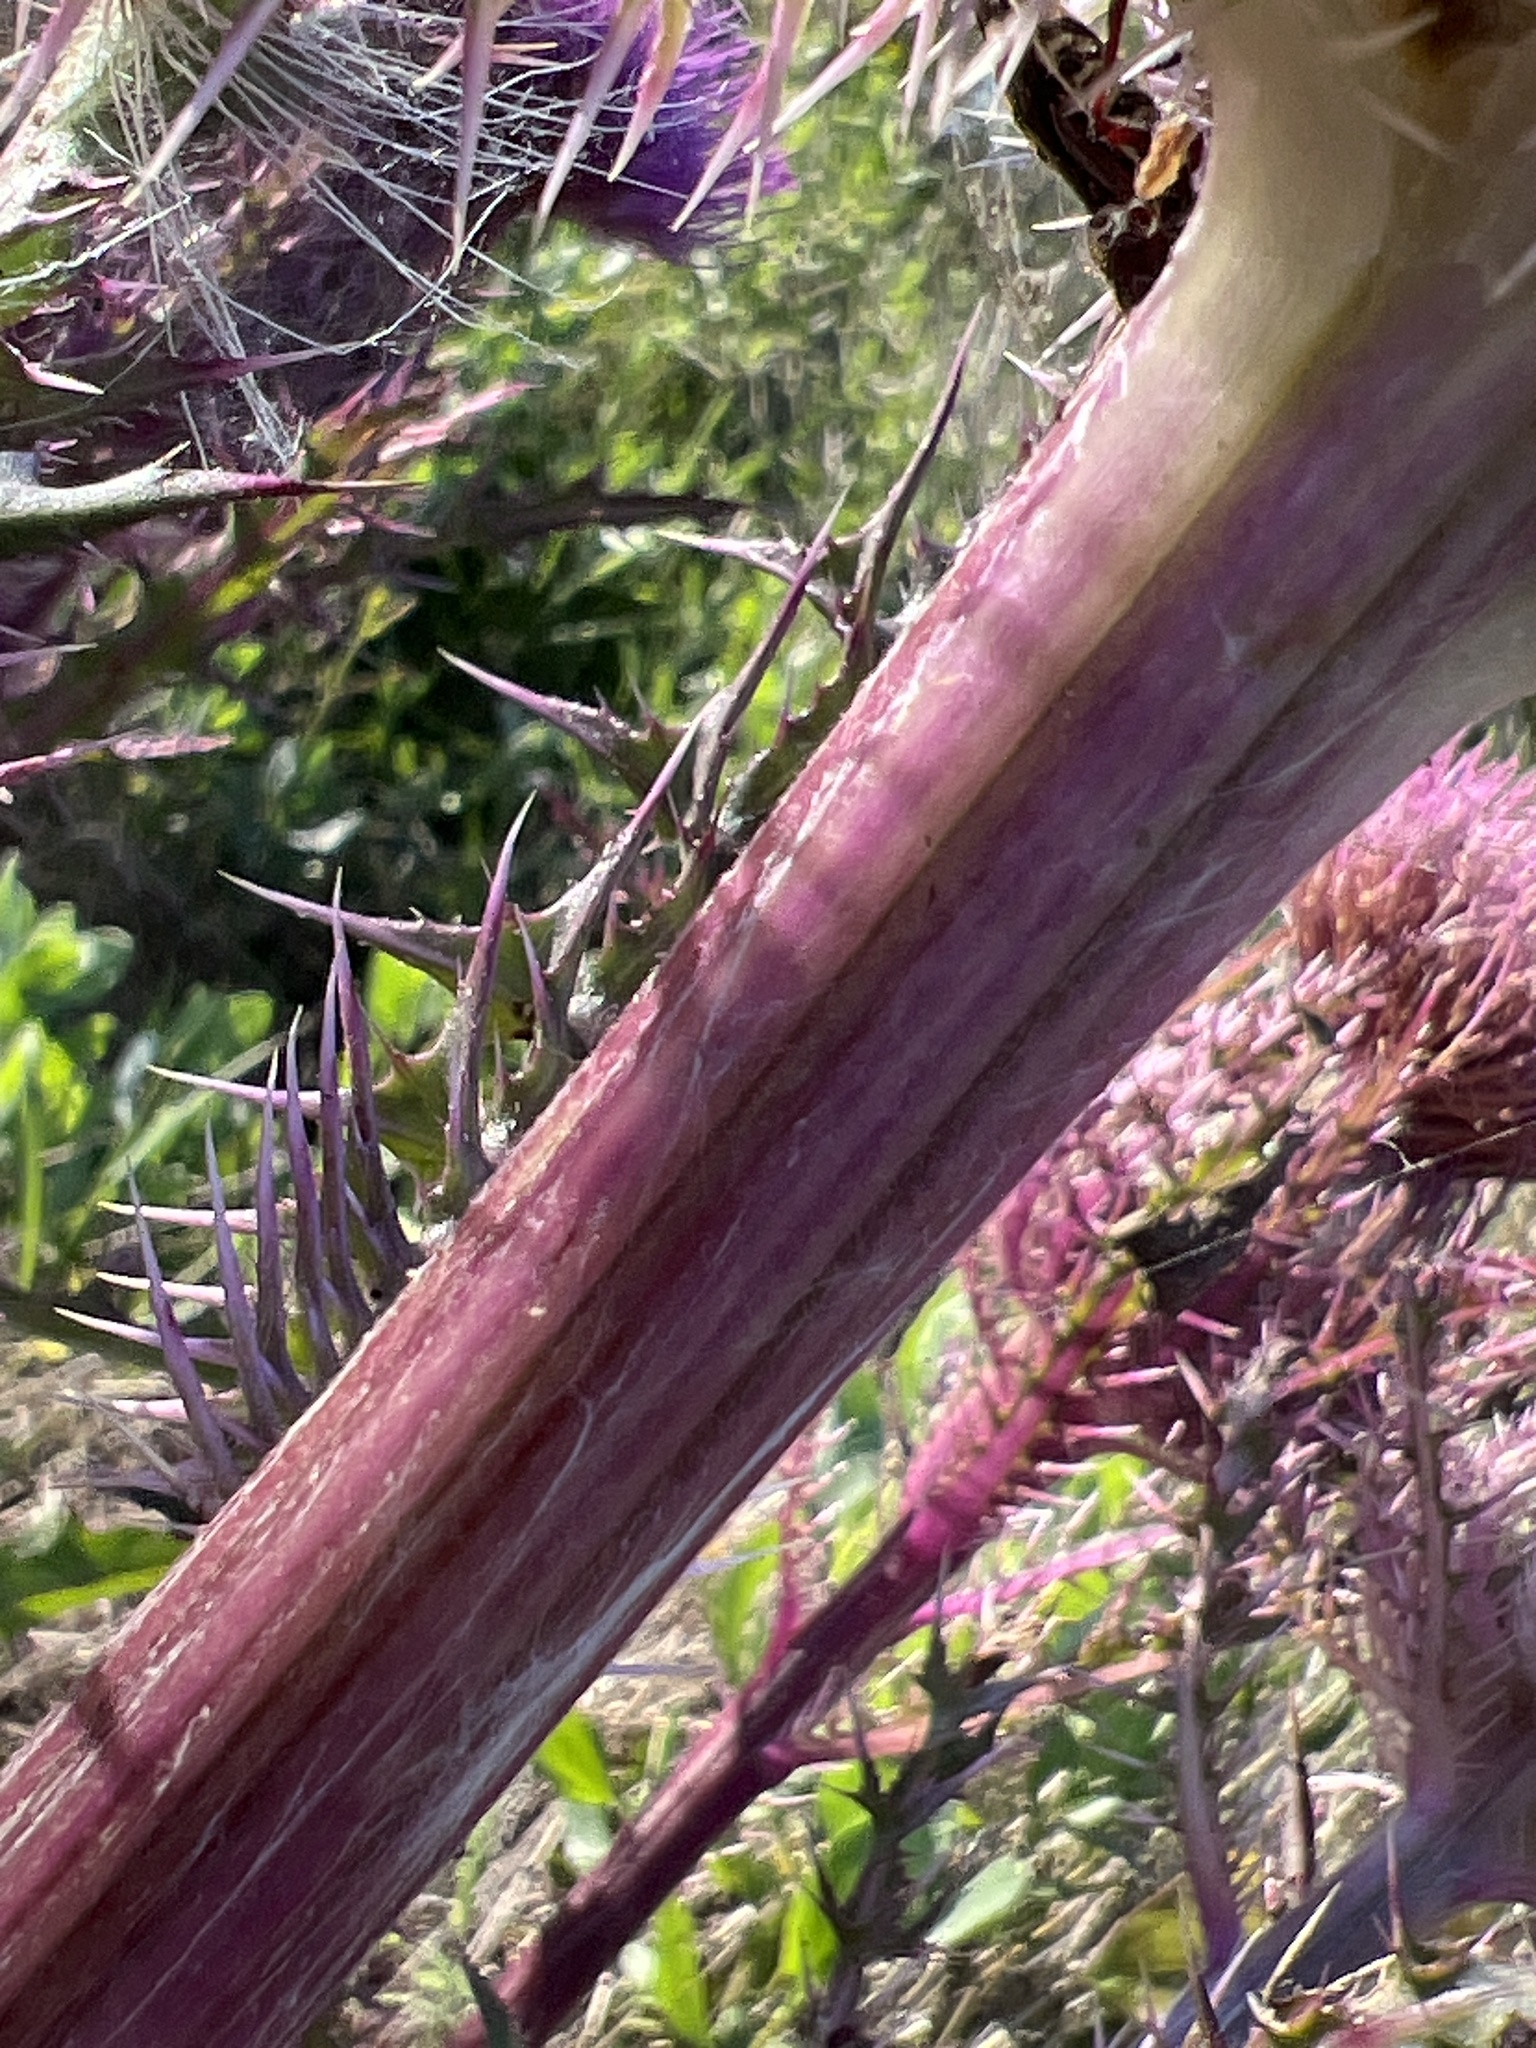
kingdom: Plantae
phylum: Tracheophyta
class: Magnoliopsida
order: Asterales
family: Asteraceae
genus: Cirsium
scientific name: Cirsium horridulum
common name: Bristly thistle
